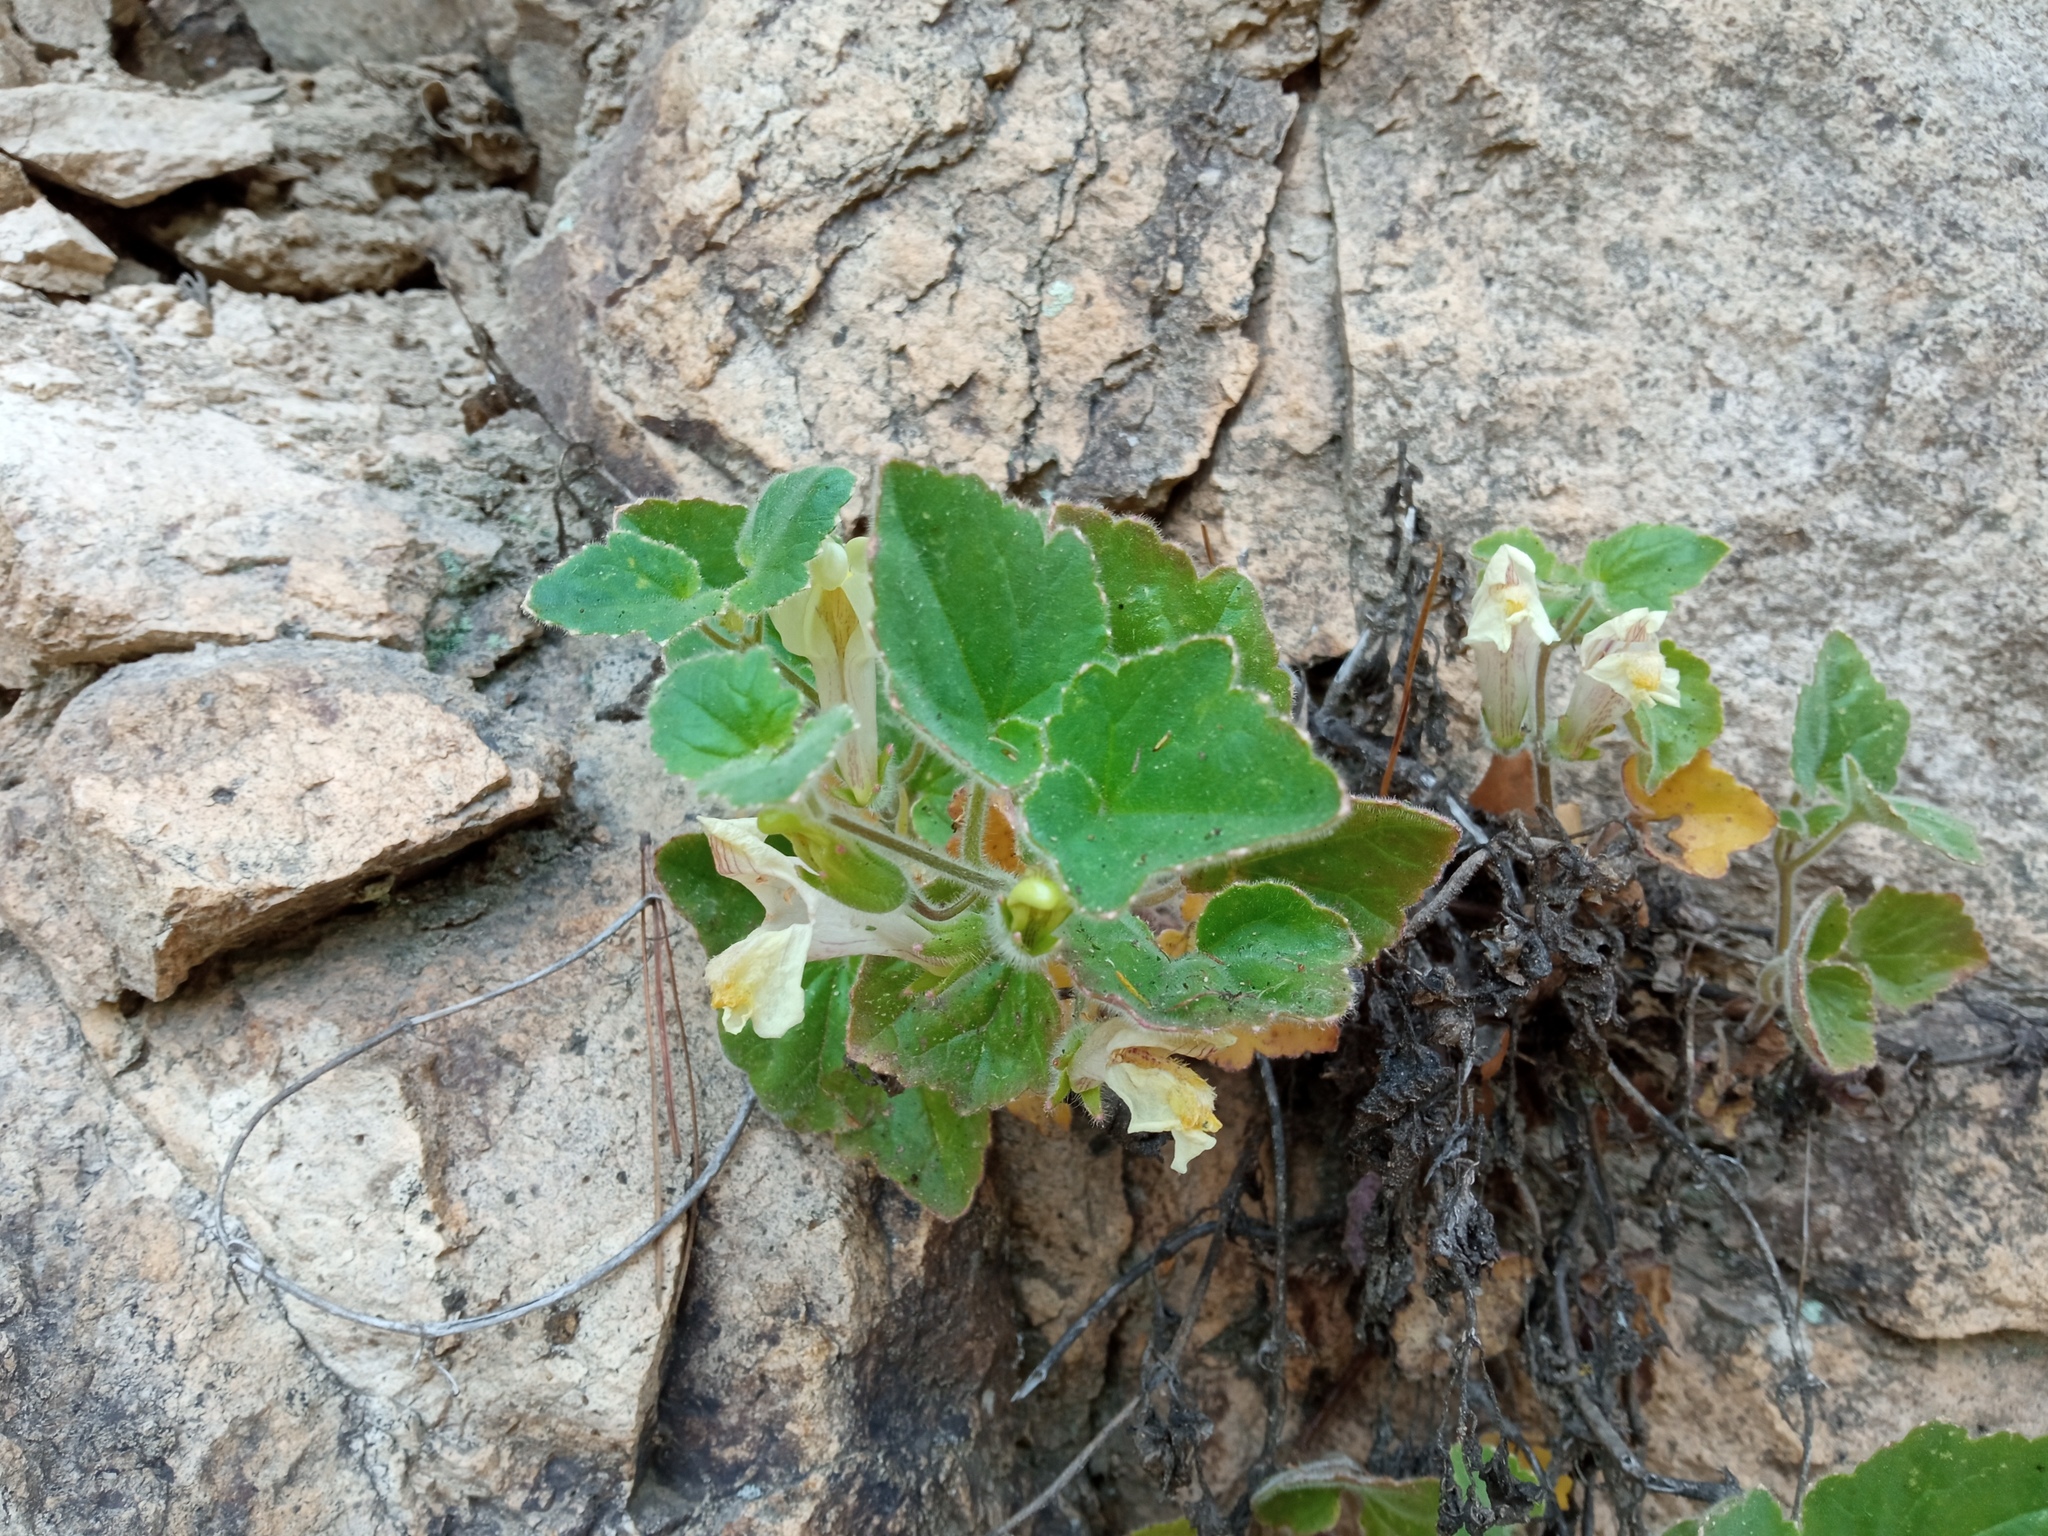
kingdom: Plantae
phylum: Tracheophyta
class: Magnoliopsida
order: Lamiales
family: Plantaginaceae
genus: Asarina
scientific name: Asarina procumbens
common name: Trailing snapdragon
